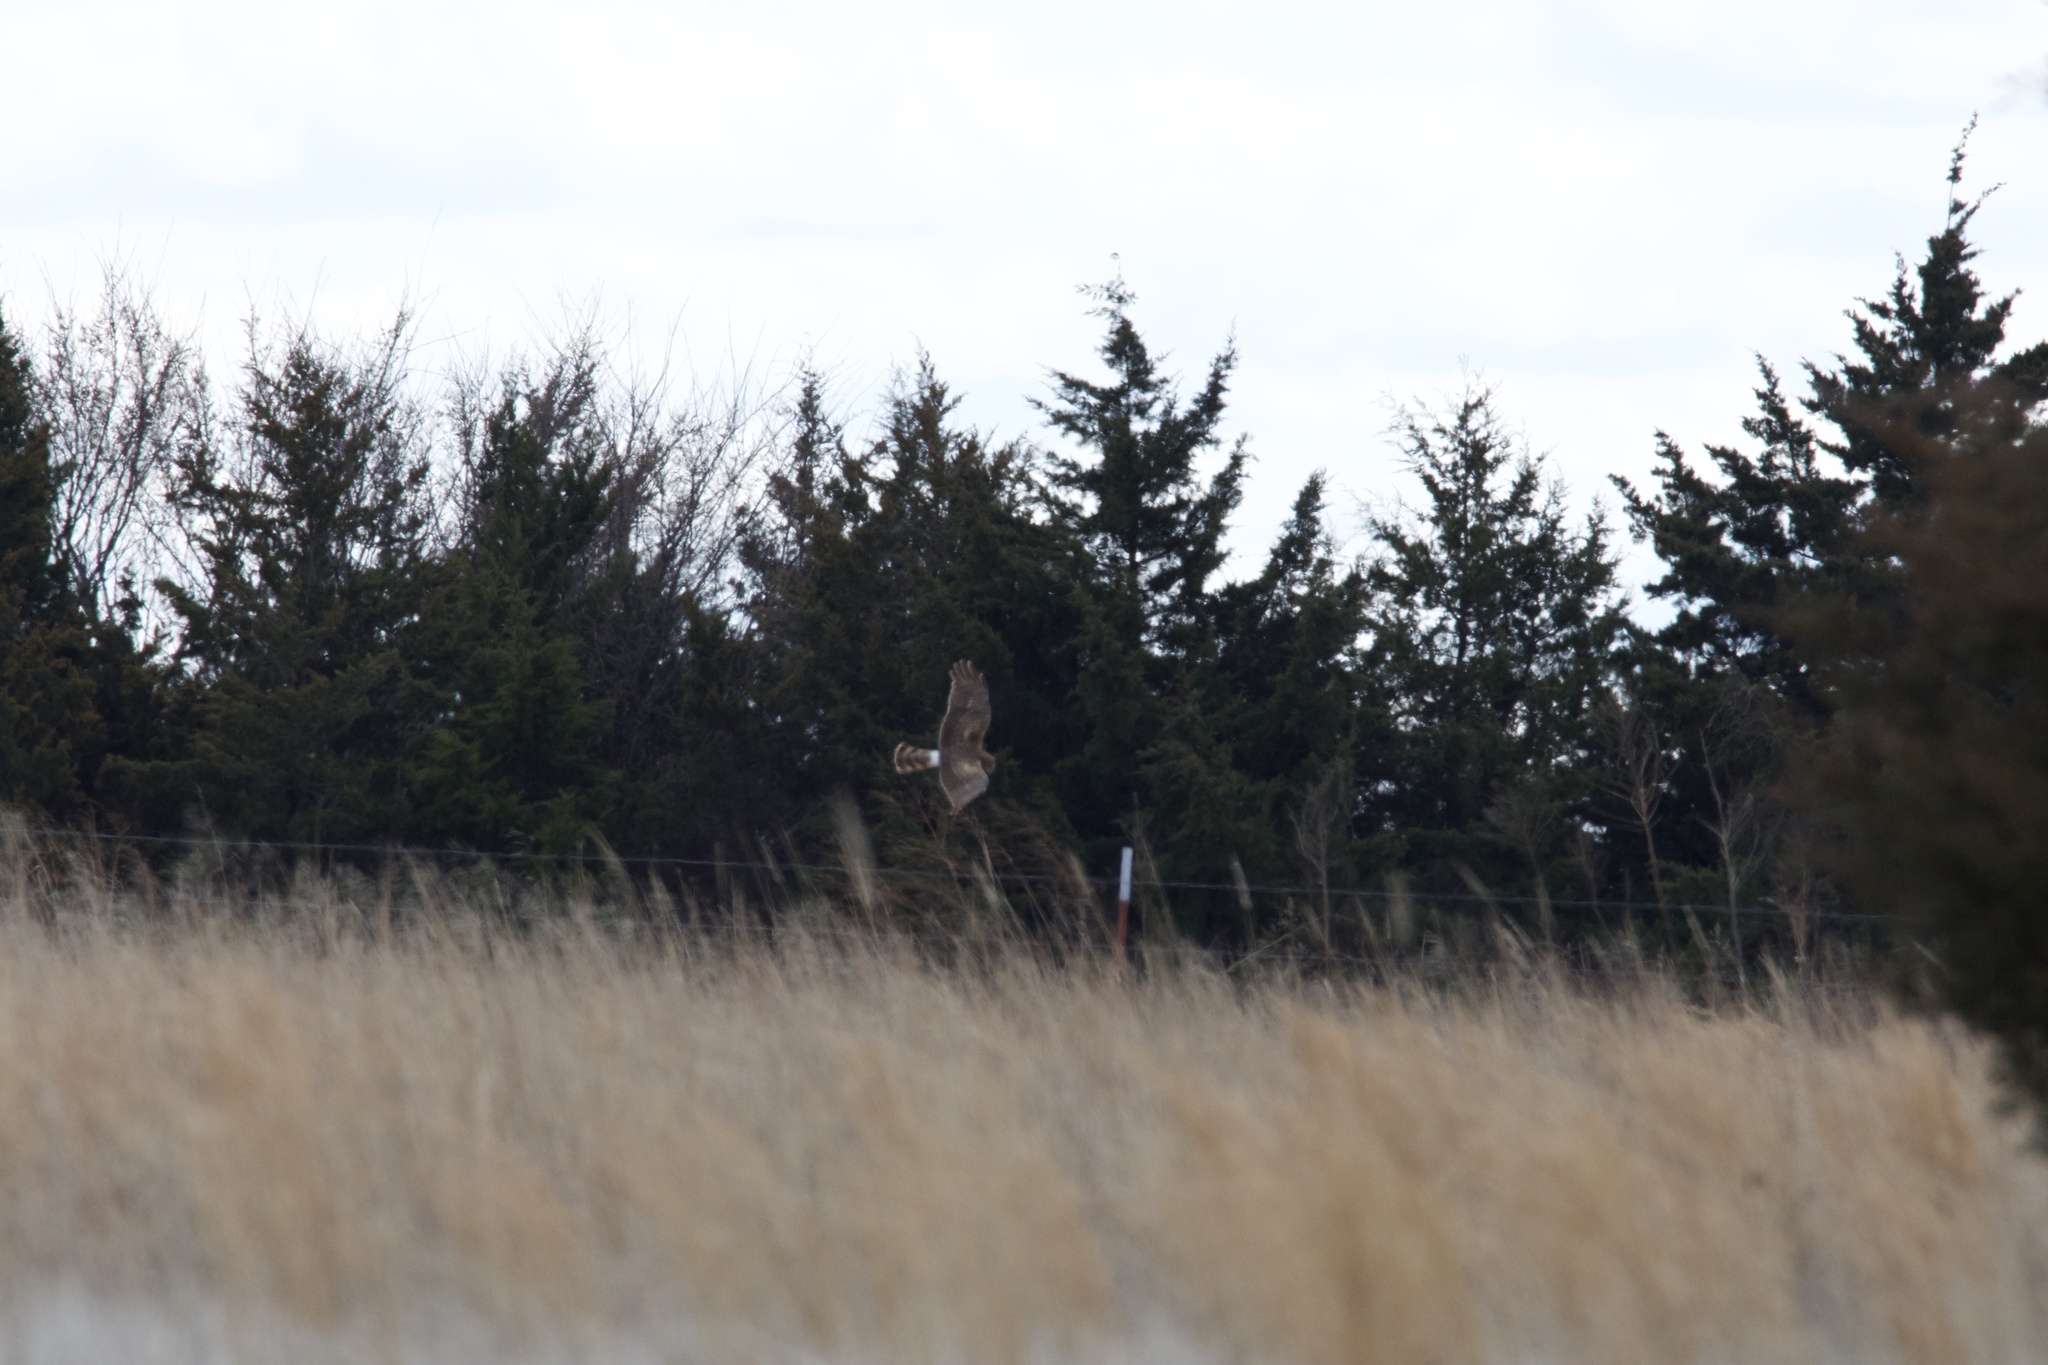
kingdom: Animalia
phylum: Chordata
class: Aves
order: Accipitriformes
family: Accipitridae
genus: Circus
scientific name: Circus cyaneus
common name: Hen harrier
